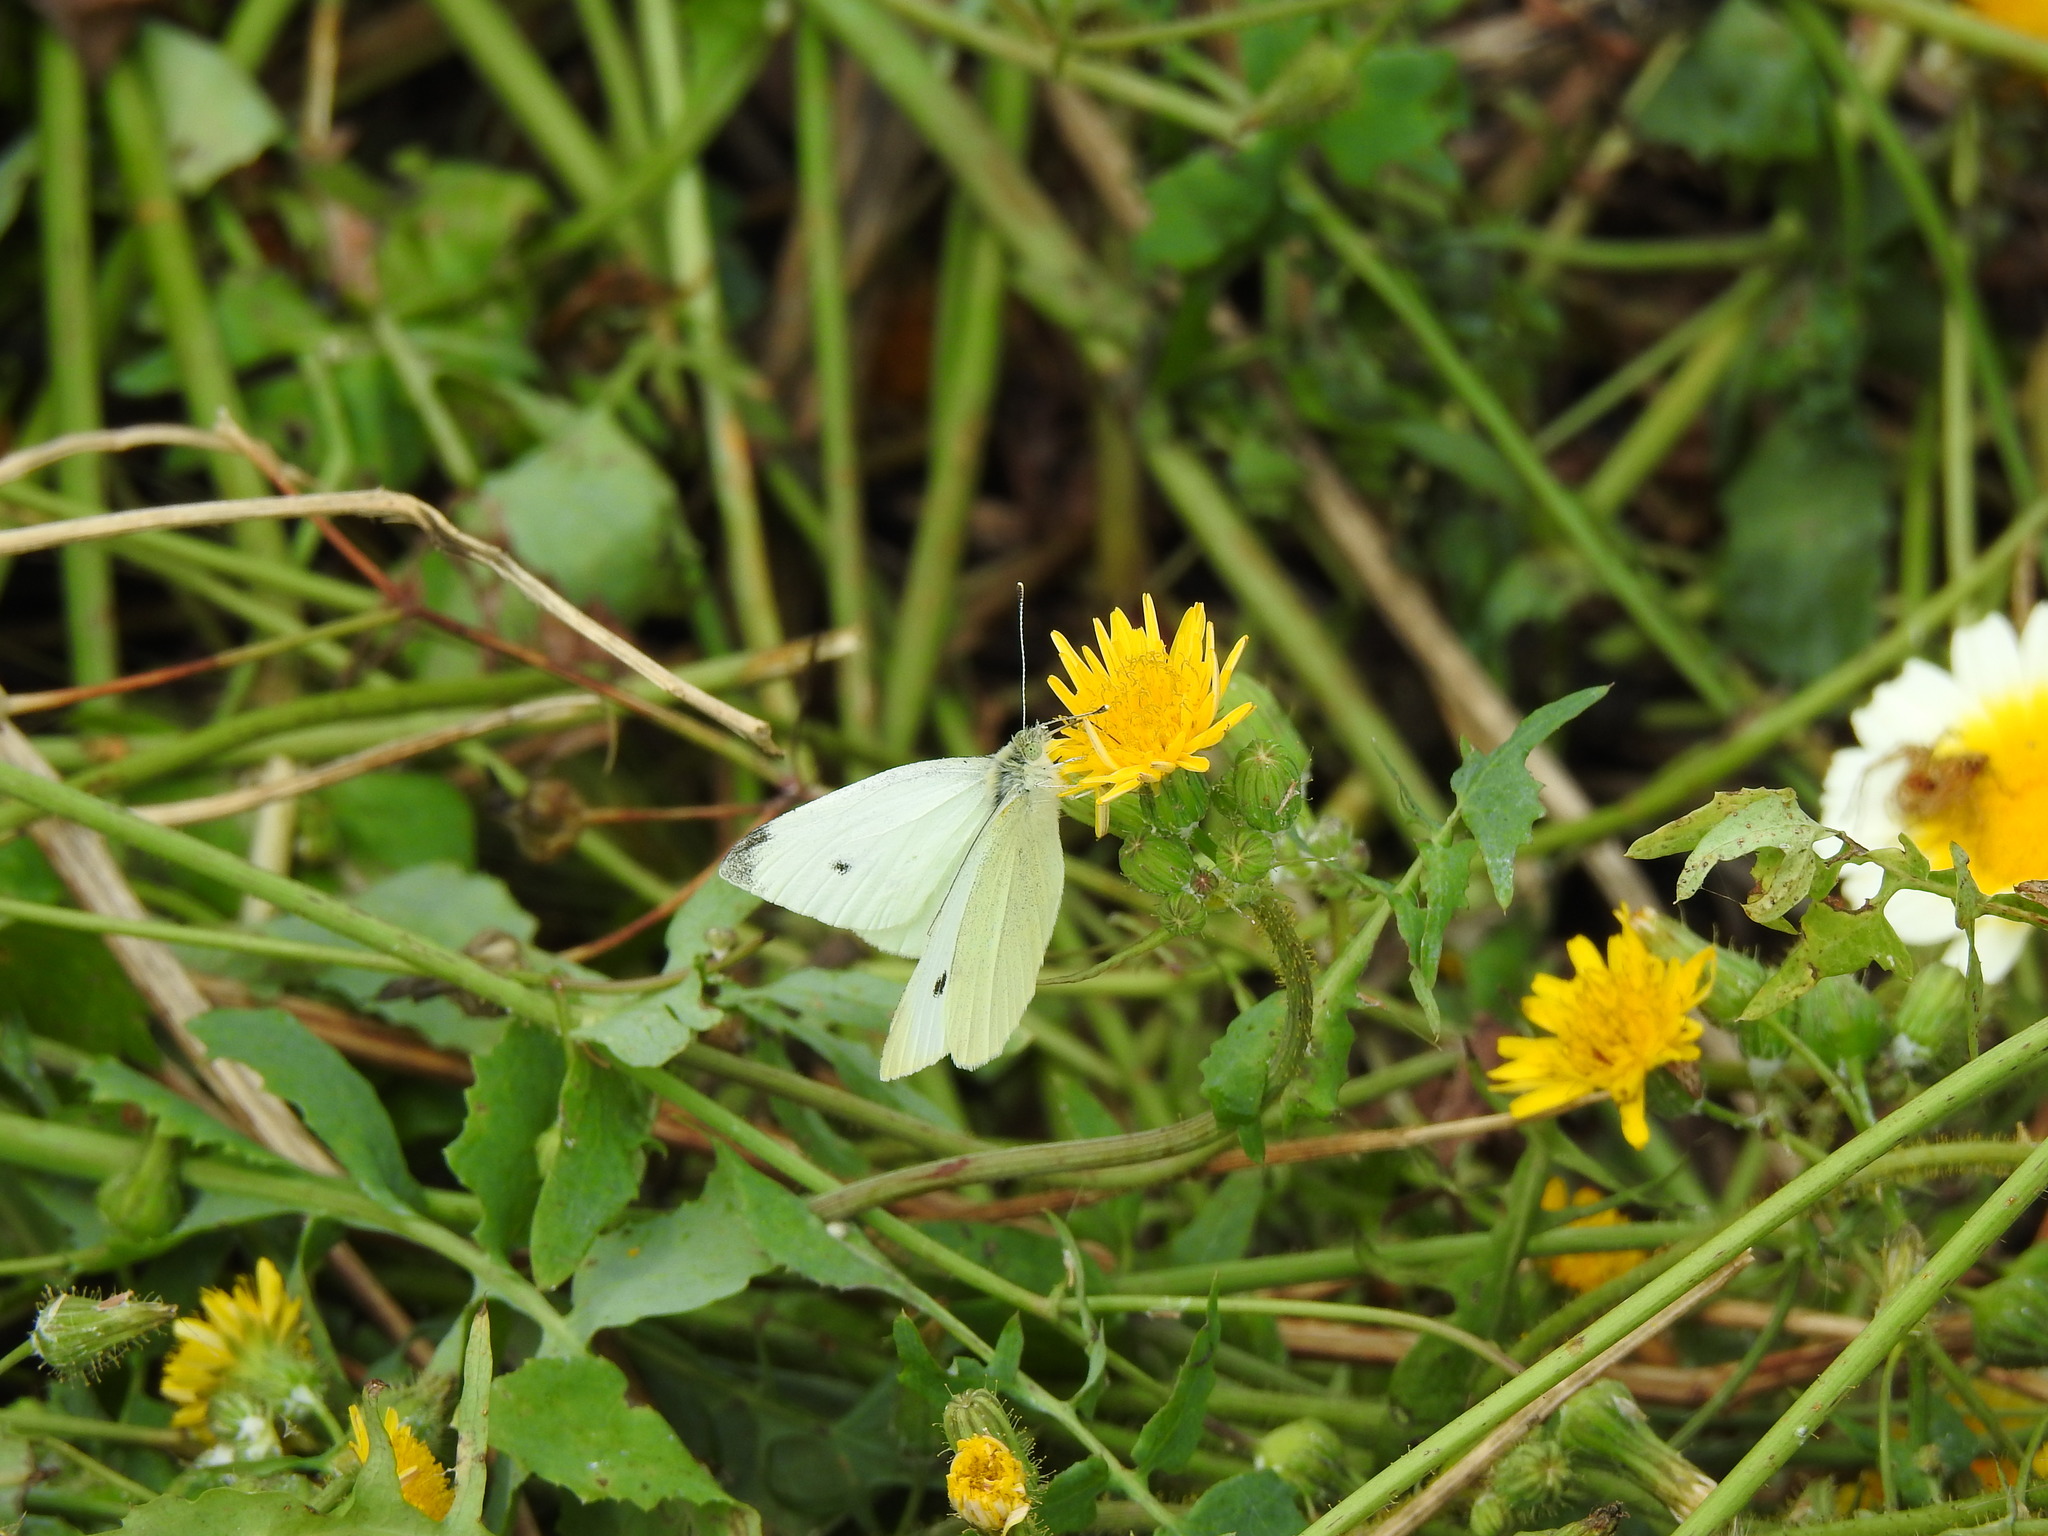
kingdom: Animalia
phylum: Arthropoda
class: Insecta
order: Lepidoptera
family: Pieridae
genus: Pieris
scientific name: Pieris rapae
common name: Small white
